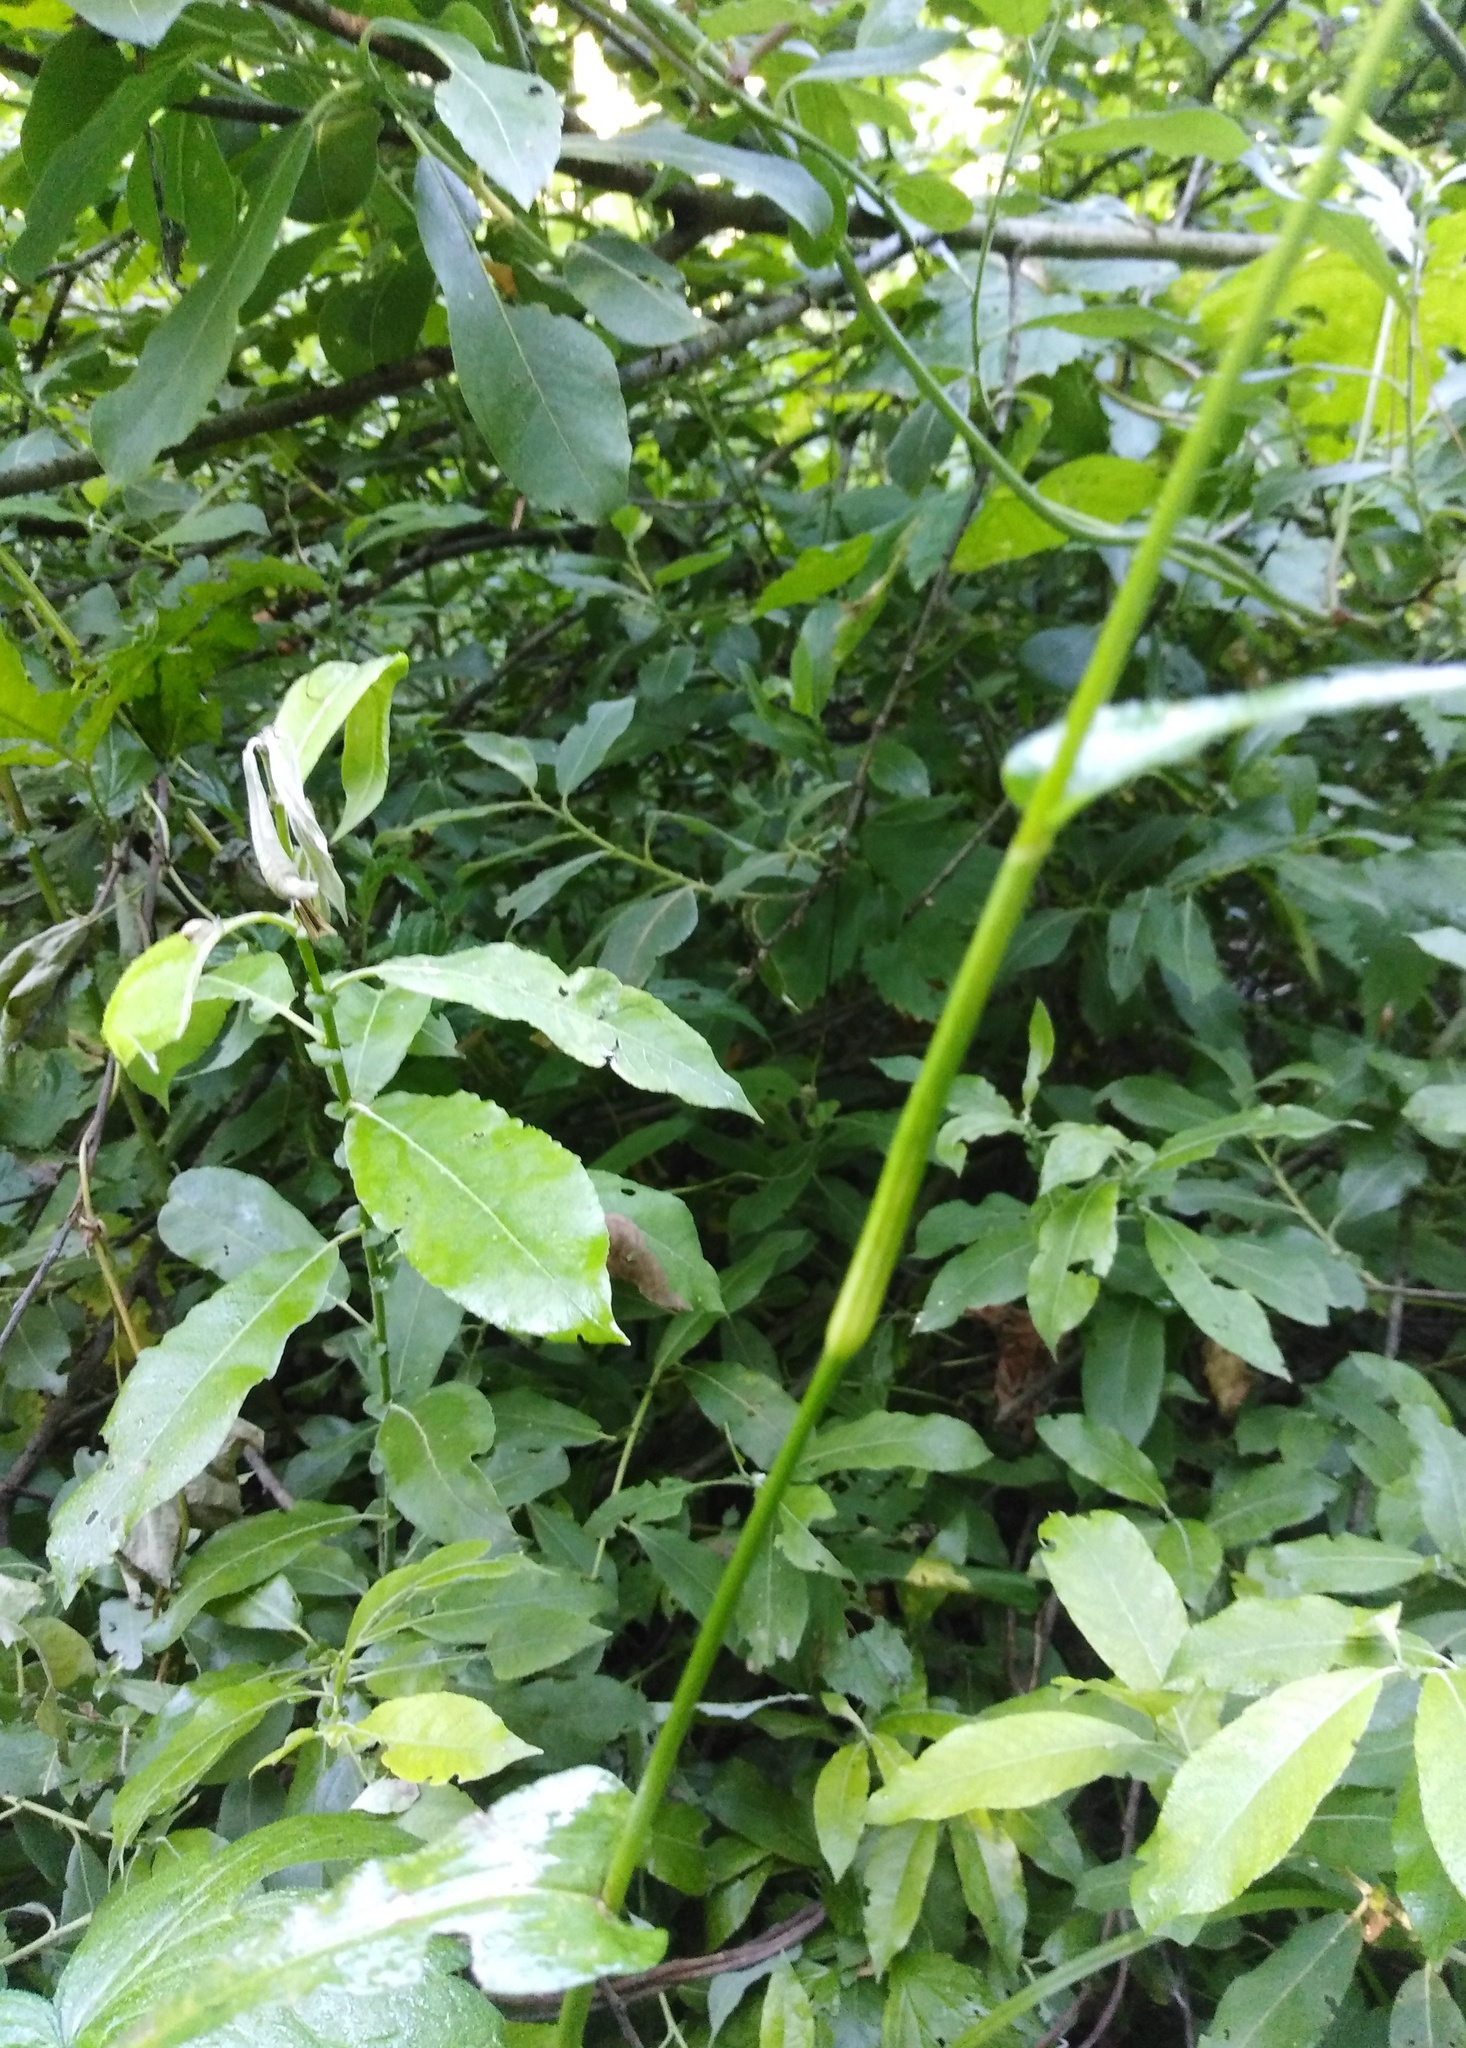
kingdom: Plantae
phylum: Tracheophyta
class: Magnoliopsida
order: Caryophyllales
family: Polygonaceae
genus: Bistorta
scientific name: Bistorta officinalis
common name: Common bistort
